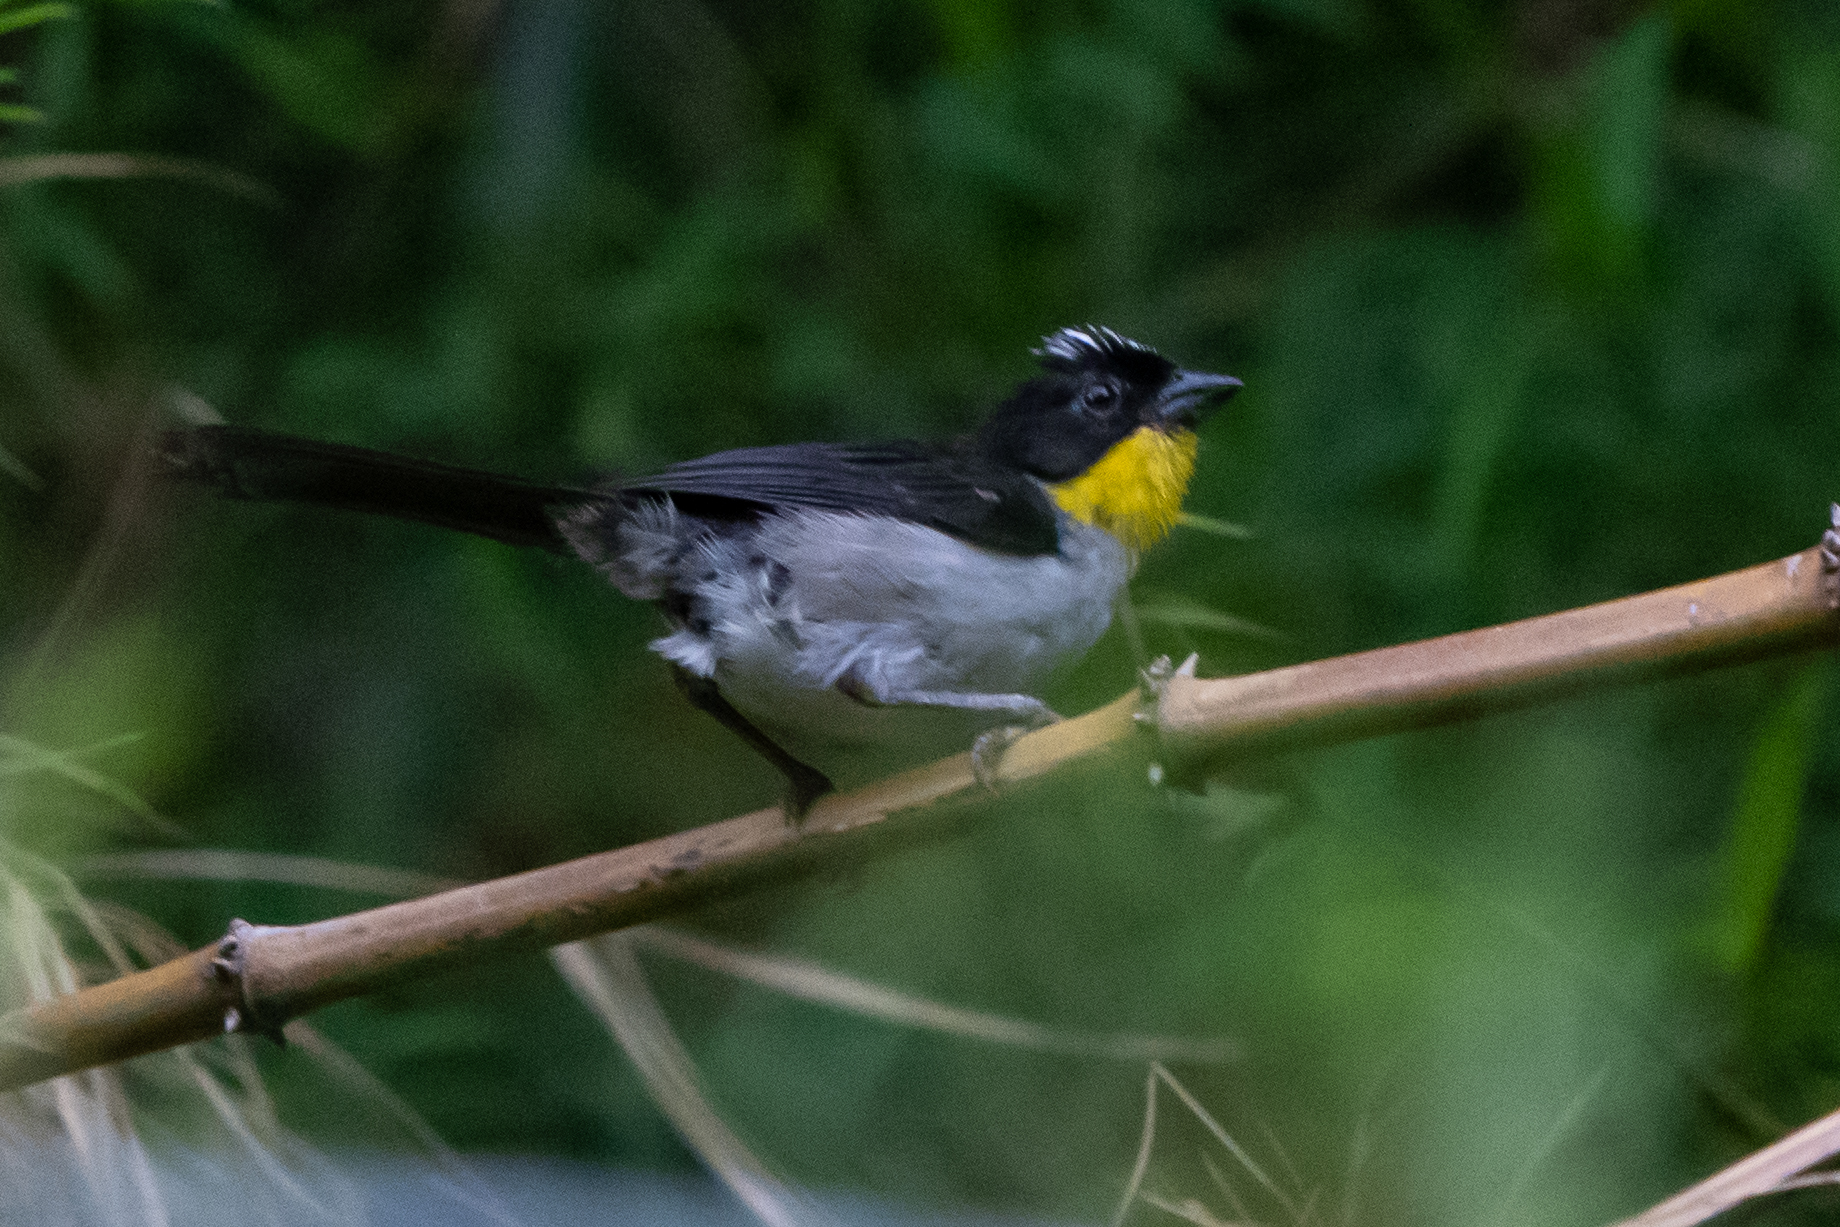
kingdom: Animalia
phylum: Chordata
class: Aves
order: Passeriformes
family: Passerellidae
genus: Atlapetes
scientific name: Atlapetes albinucha
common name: White-naped brush-finch
